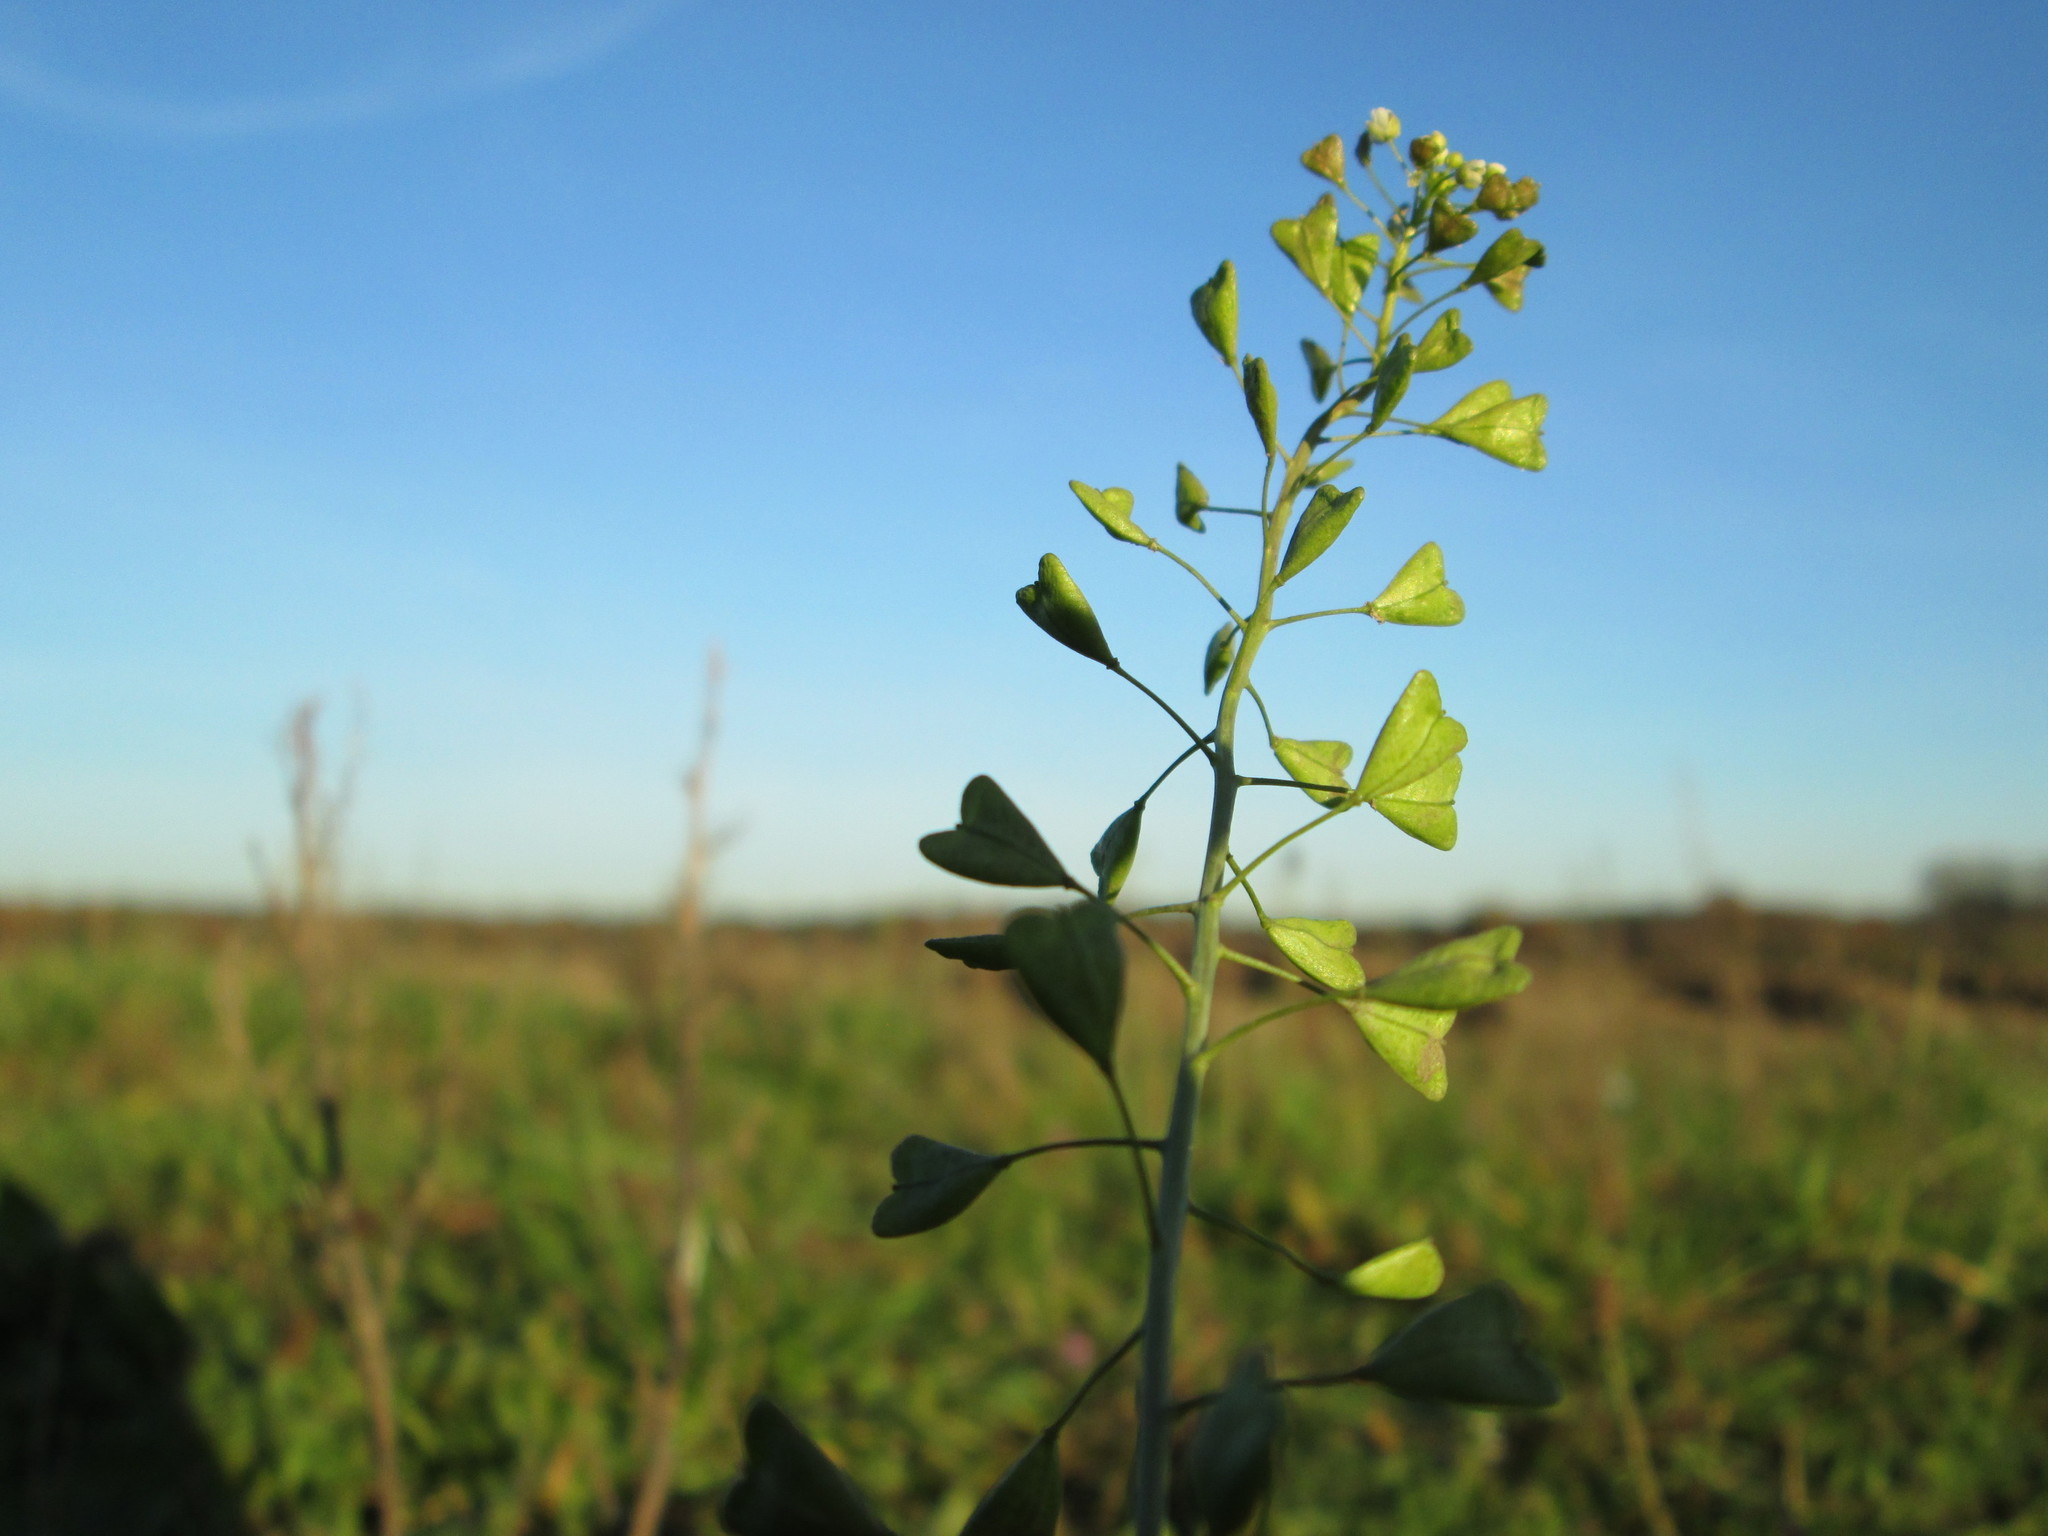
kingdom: Plantae
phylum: Tracheophyta
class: Magnoliopsida
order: Brassicales
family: Brassicaceae
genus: Capsella
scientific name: Capsella bursa-pastoris
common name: Shepherd's purse
